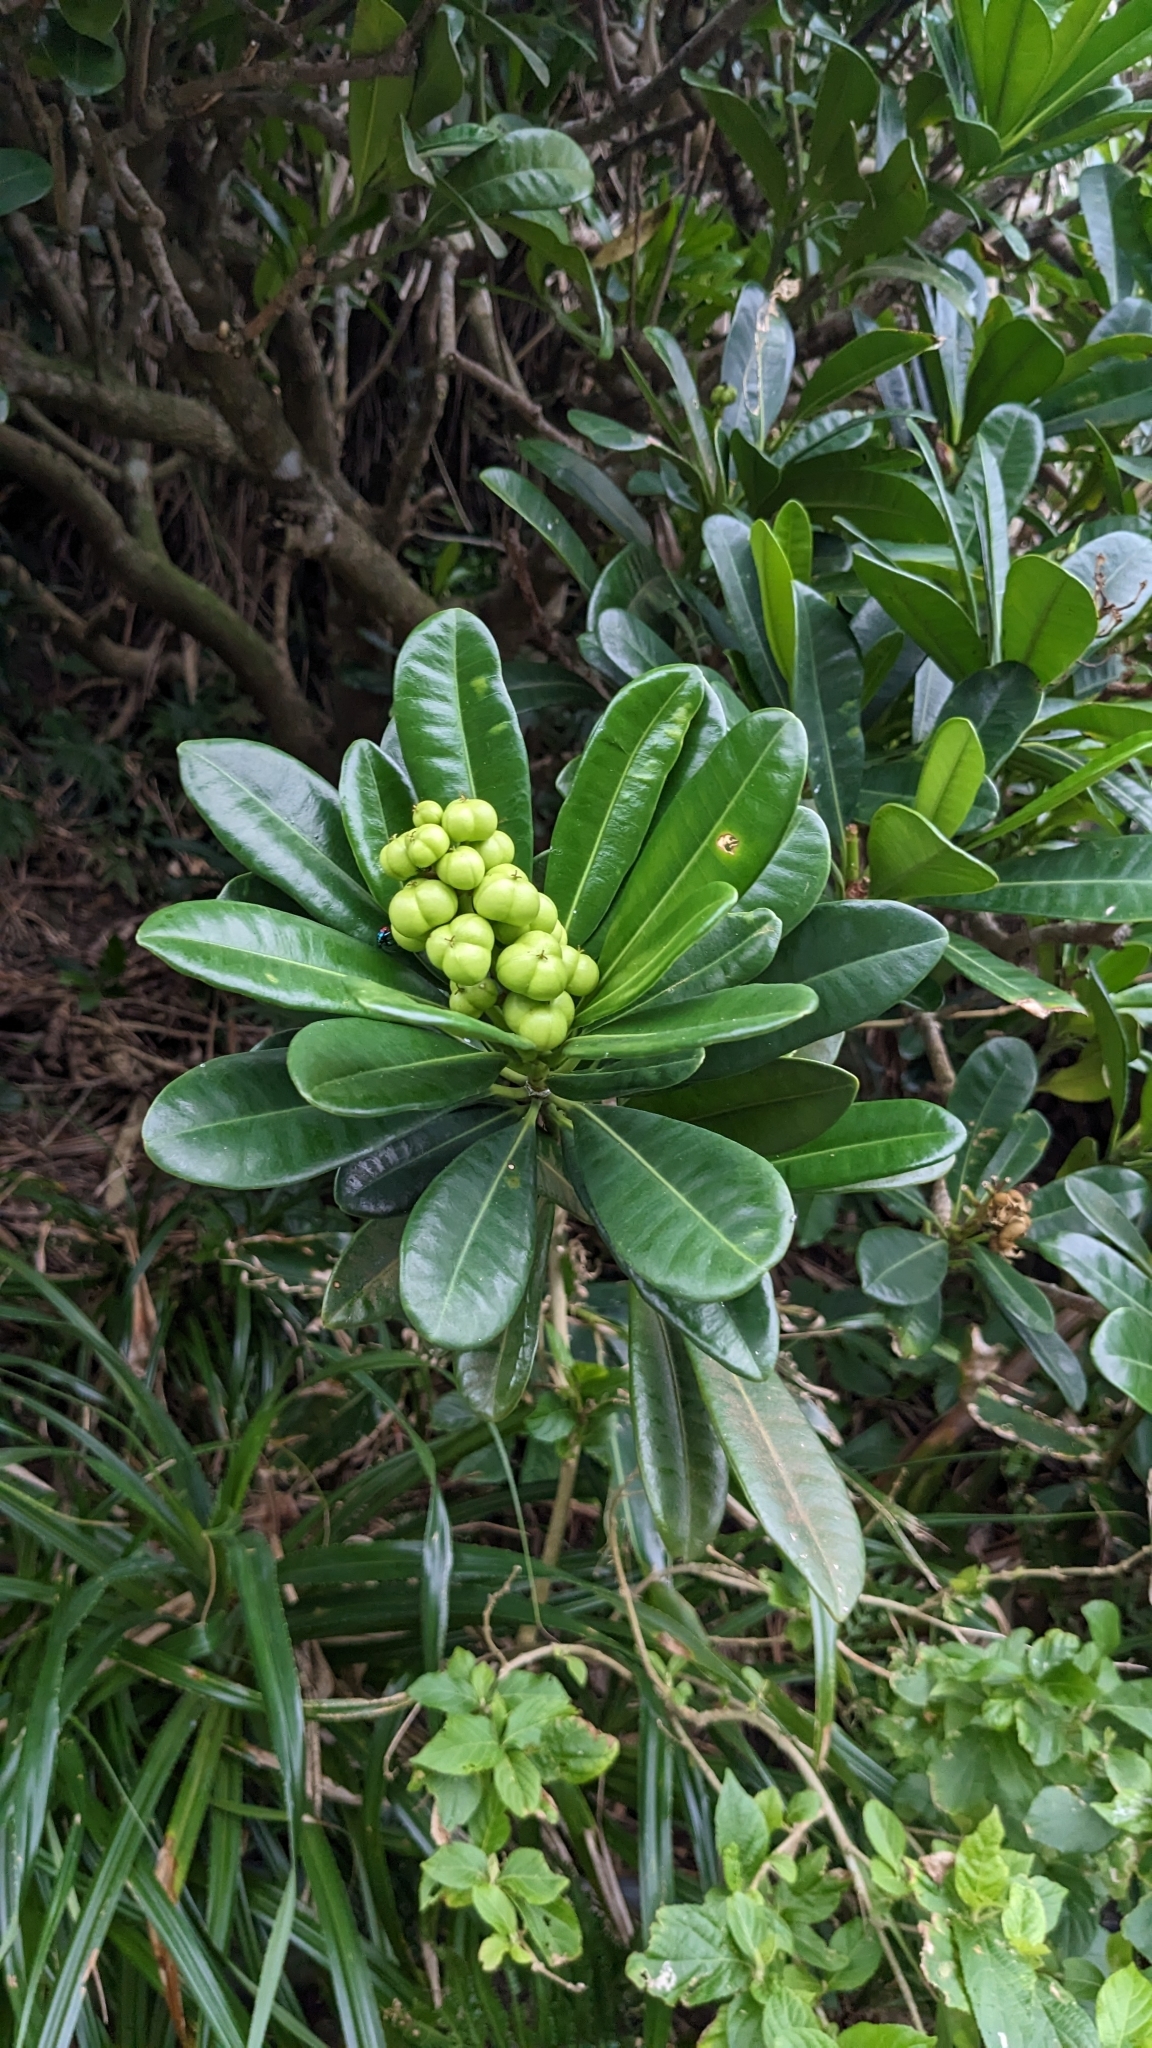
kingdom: Plantae
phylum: Tracheophyta
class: Magnoliopsida
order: Malpighiales
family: Euphorbiaceae
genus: Excoecaria
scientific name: Excoecaria kawakamii
